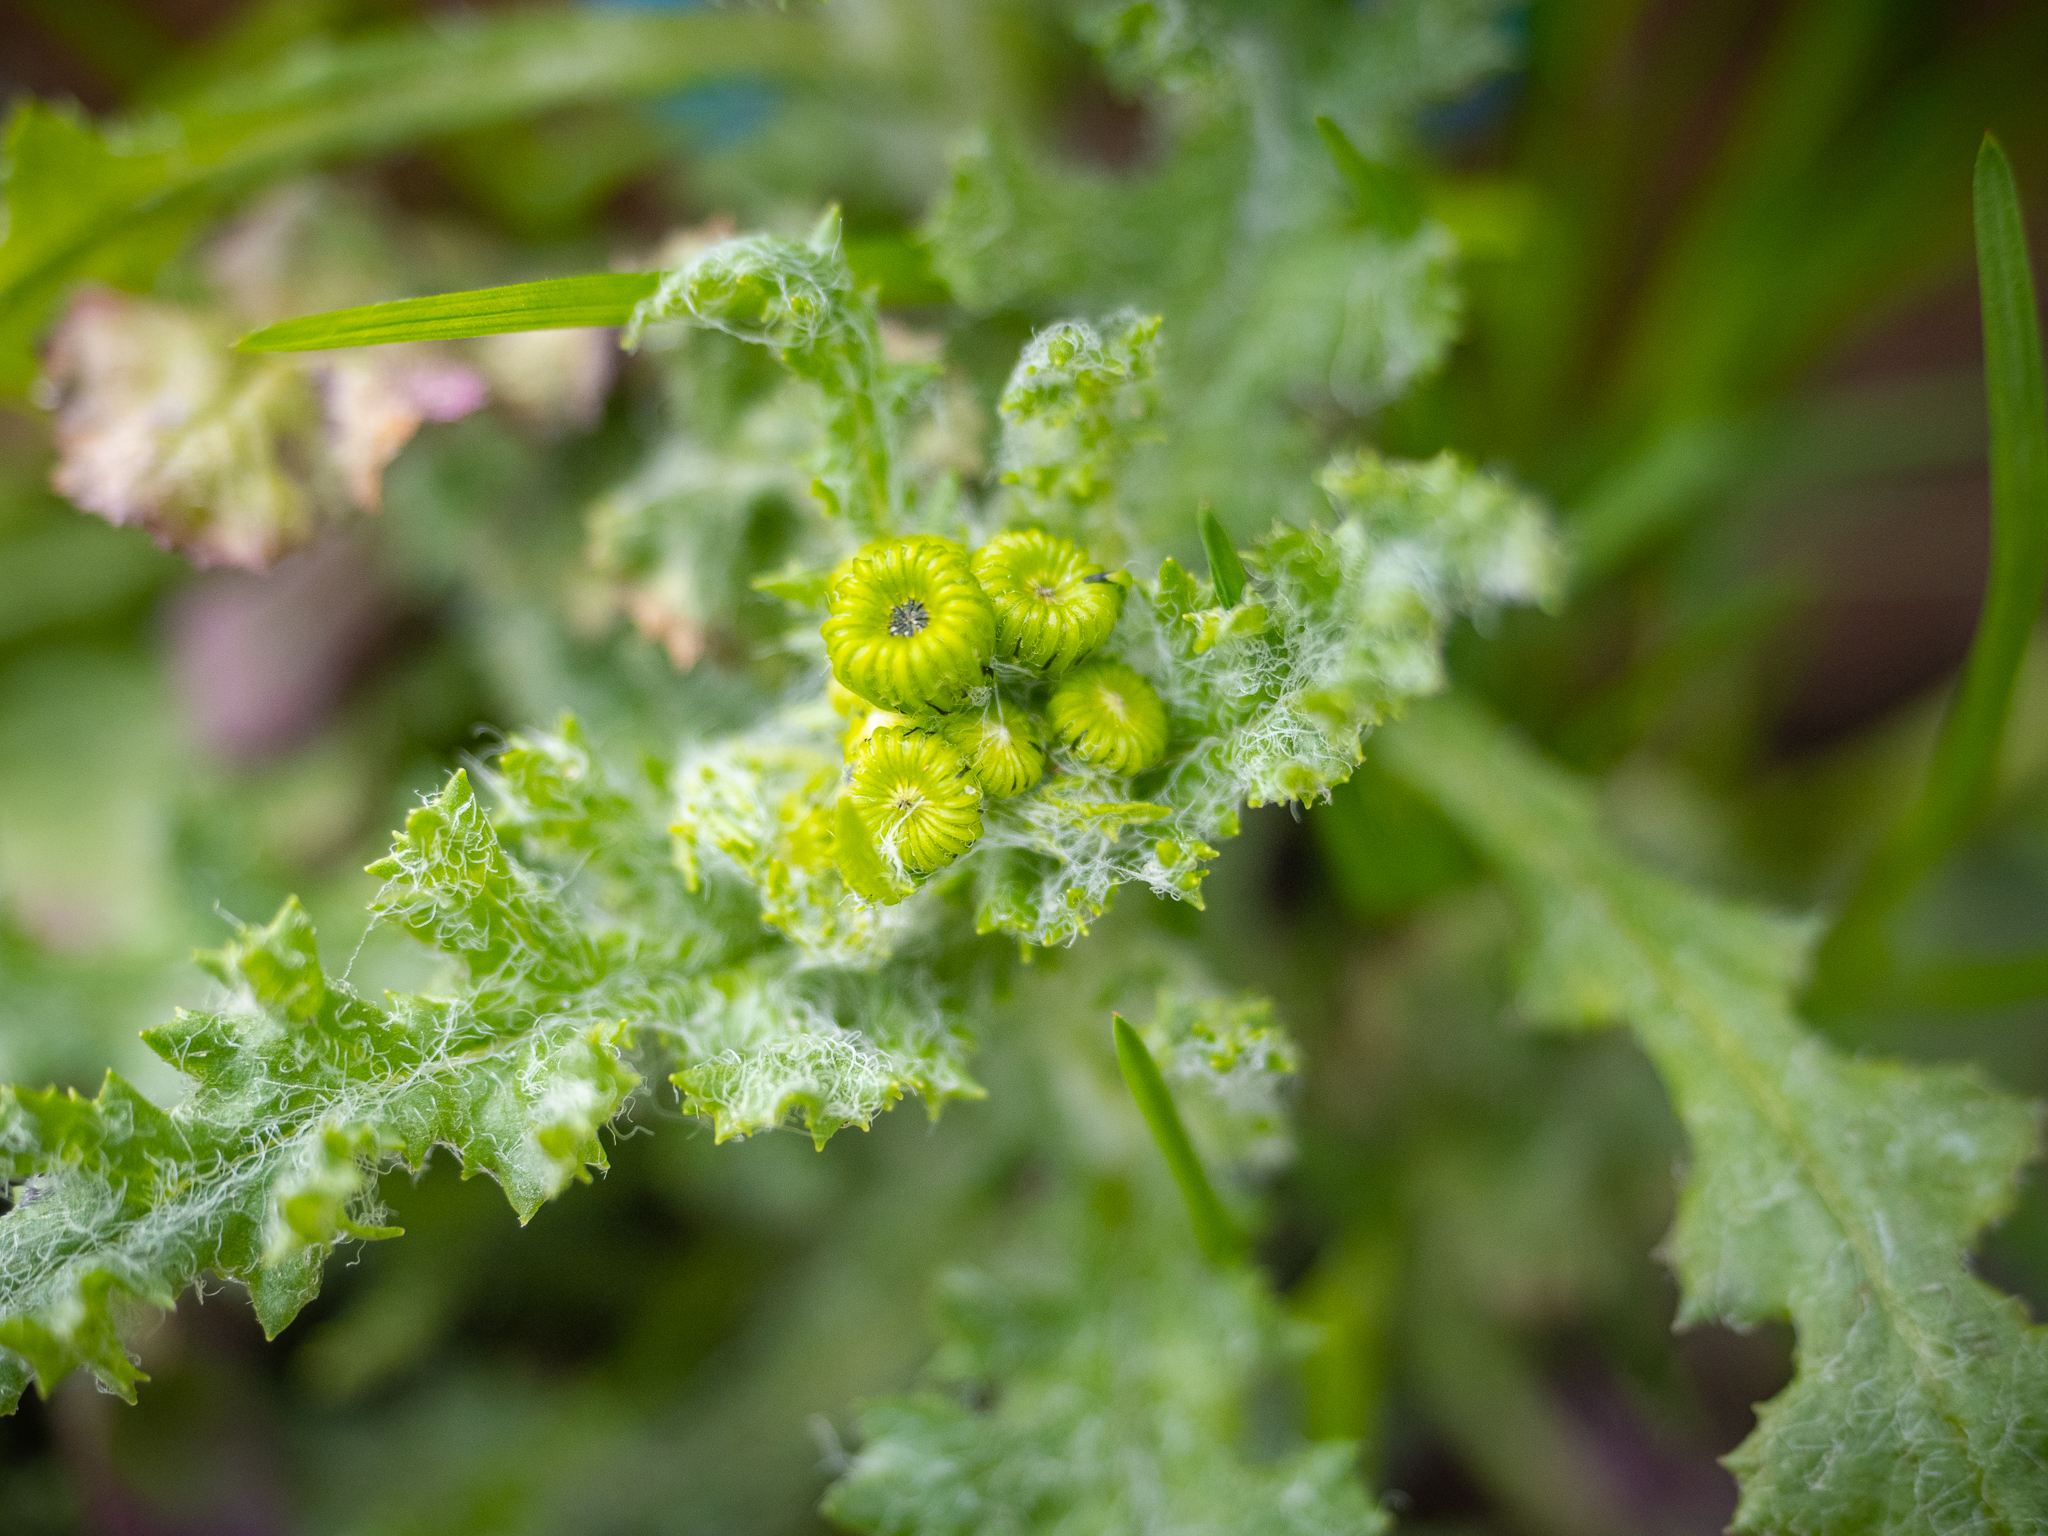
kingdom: Plantae
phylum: Tracheophyta
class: Magnoliopsida
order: Asterales
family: Asteraceae
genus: Senecio
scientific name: Senecio vernalis
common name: Eastern groundsel
